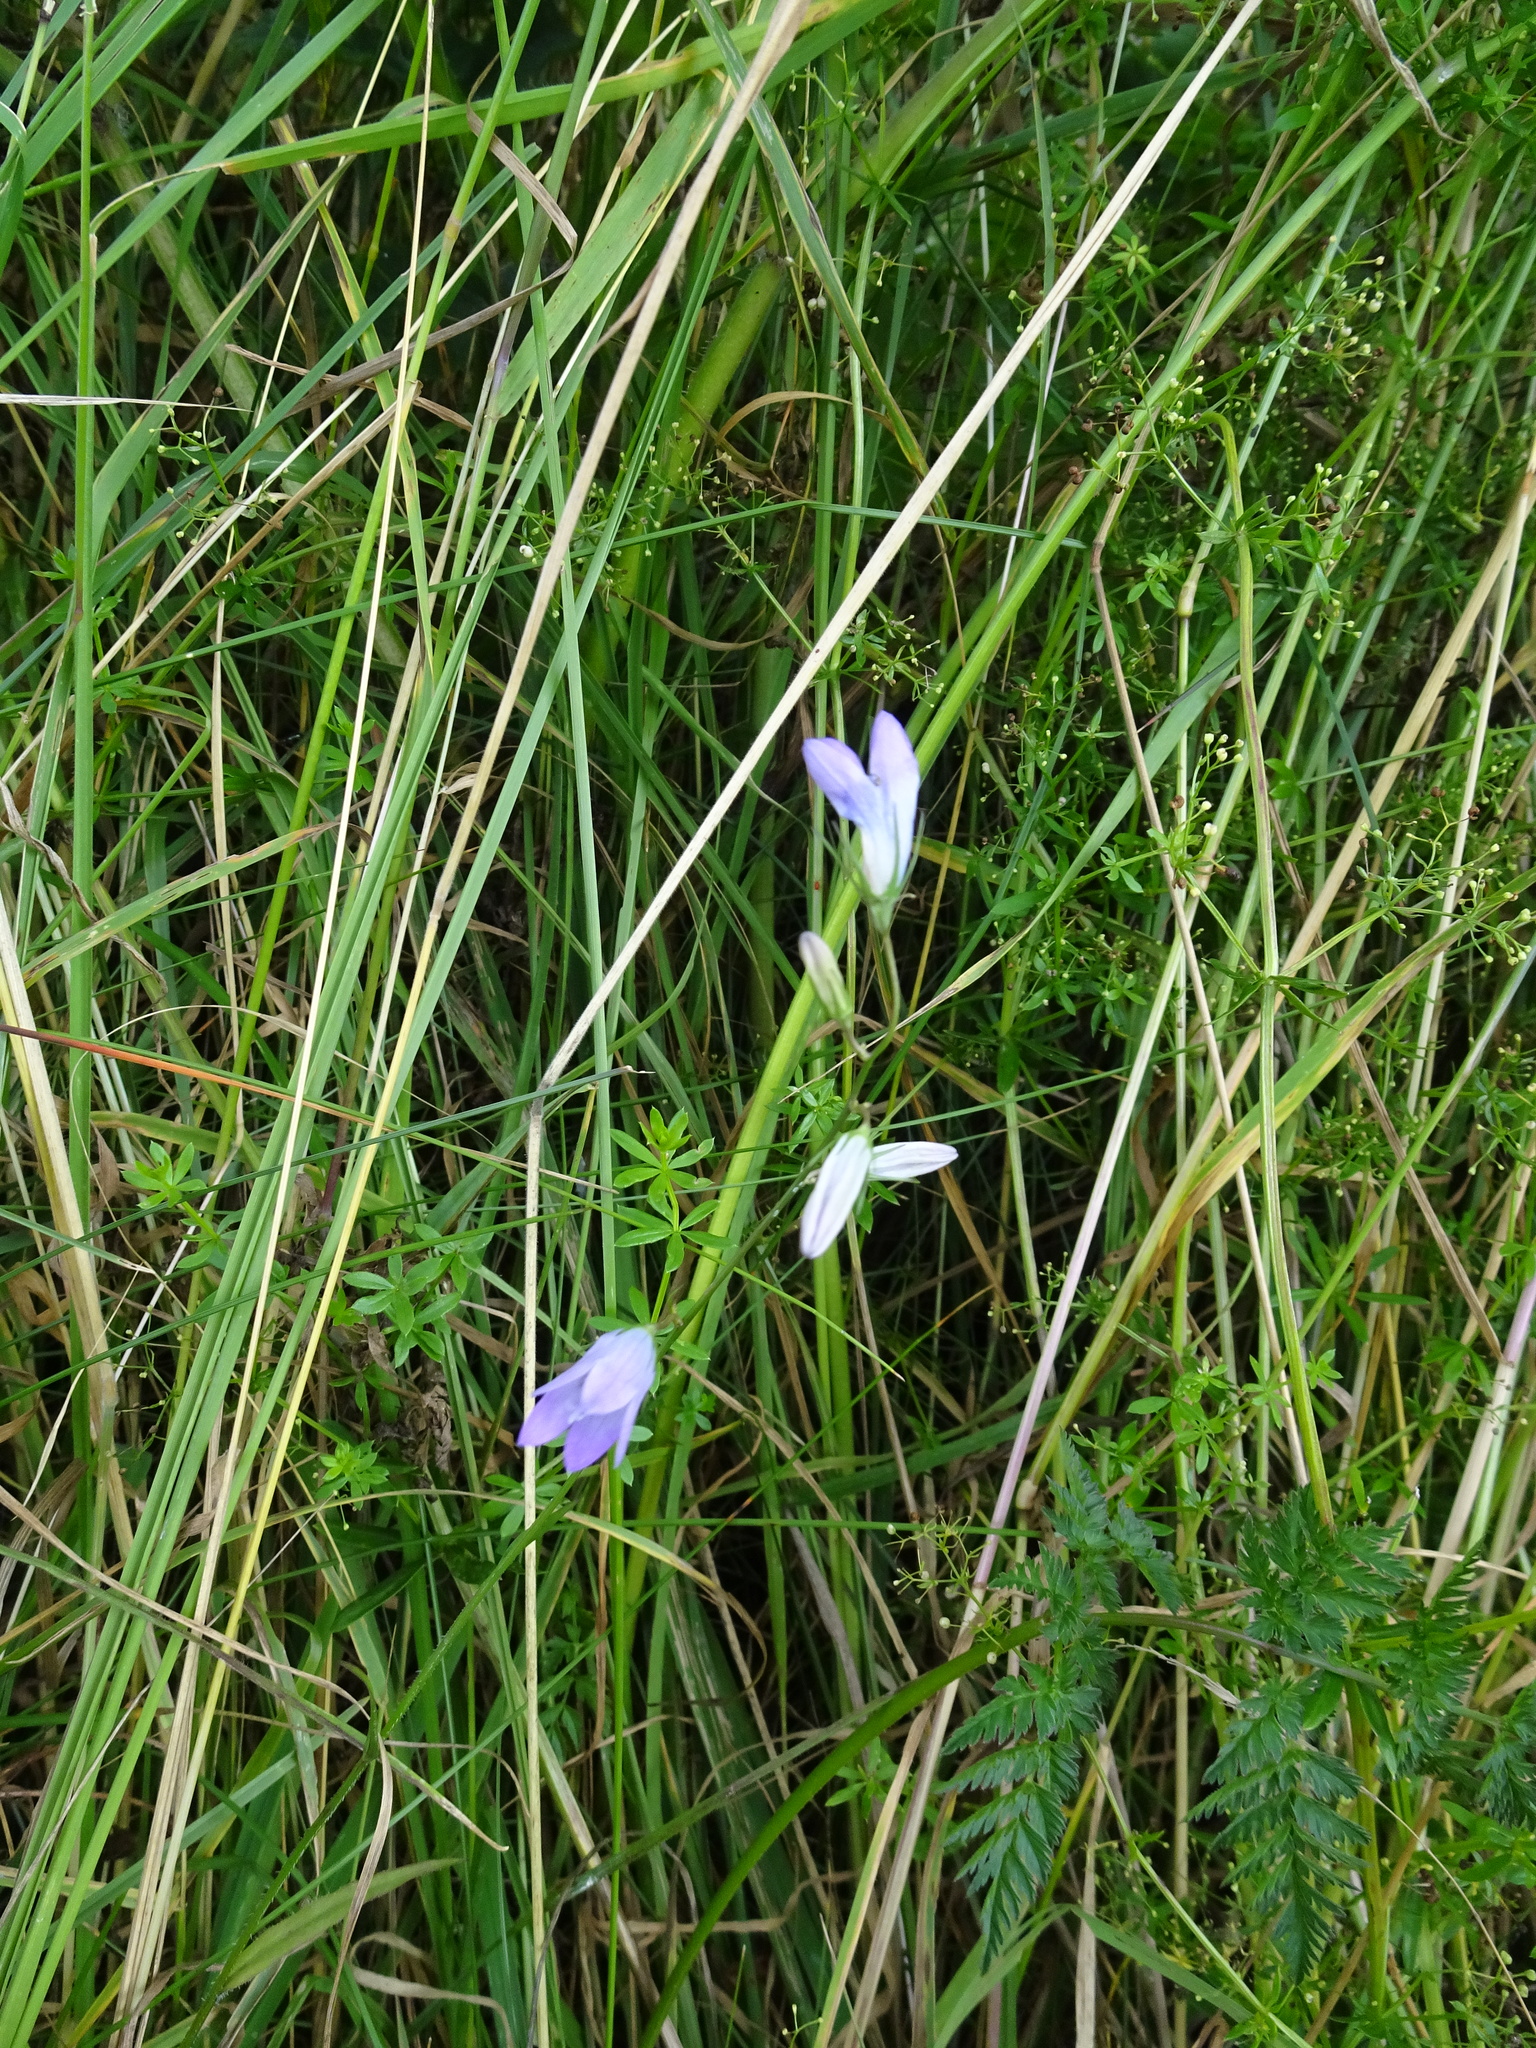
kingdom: Plantae
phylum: Tracheophyta
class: Magnoliopsida
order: Asterales
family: Campanulaceae
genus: Campanula
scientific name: Campanula rapunculus
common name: Rampion bellflower
